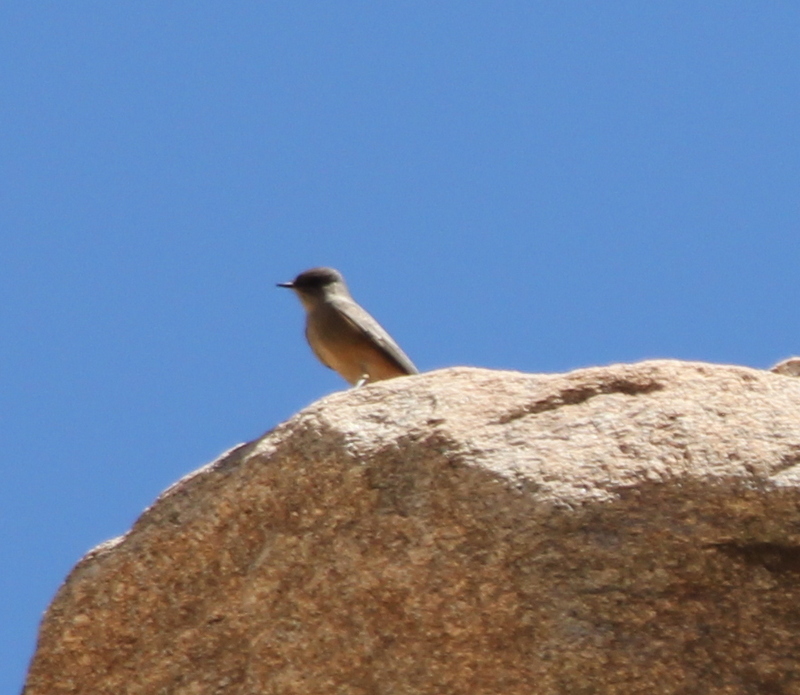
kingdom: Animalia
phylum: Chordata
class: Aves
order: Passeriformes
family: Tyrannidae
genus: Sayornis
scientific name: Sayornis saya
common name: Say's phoebe
